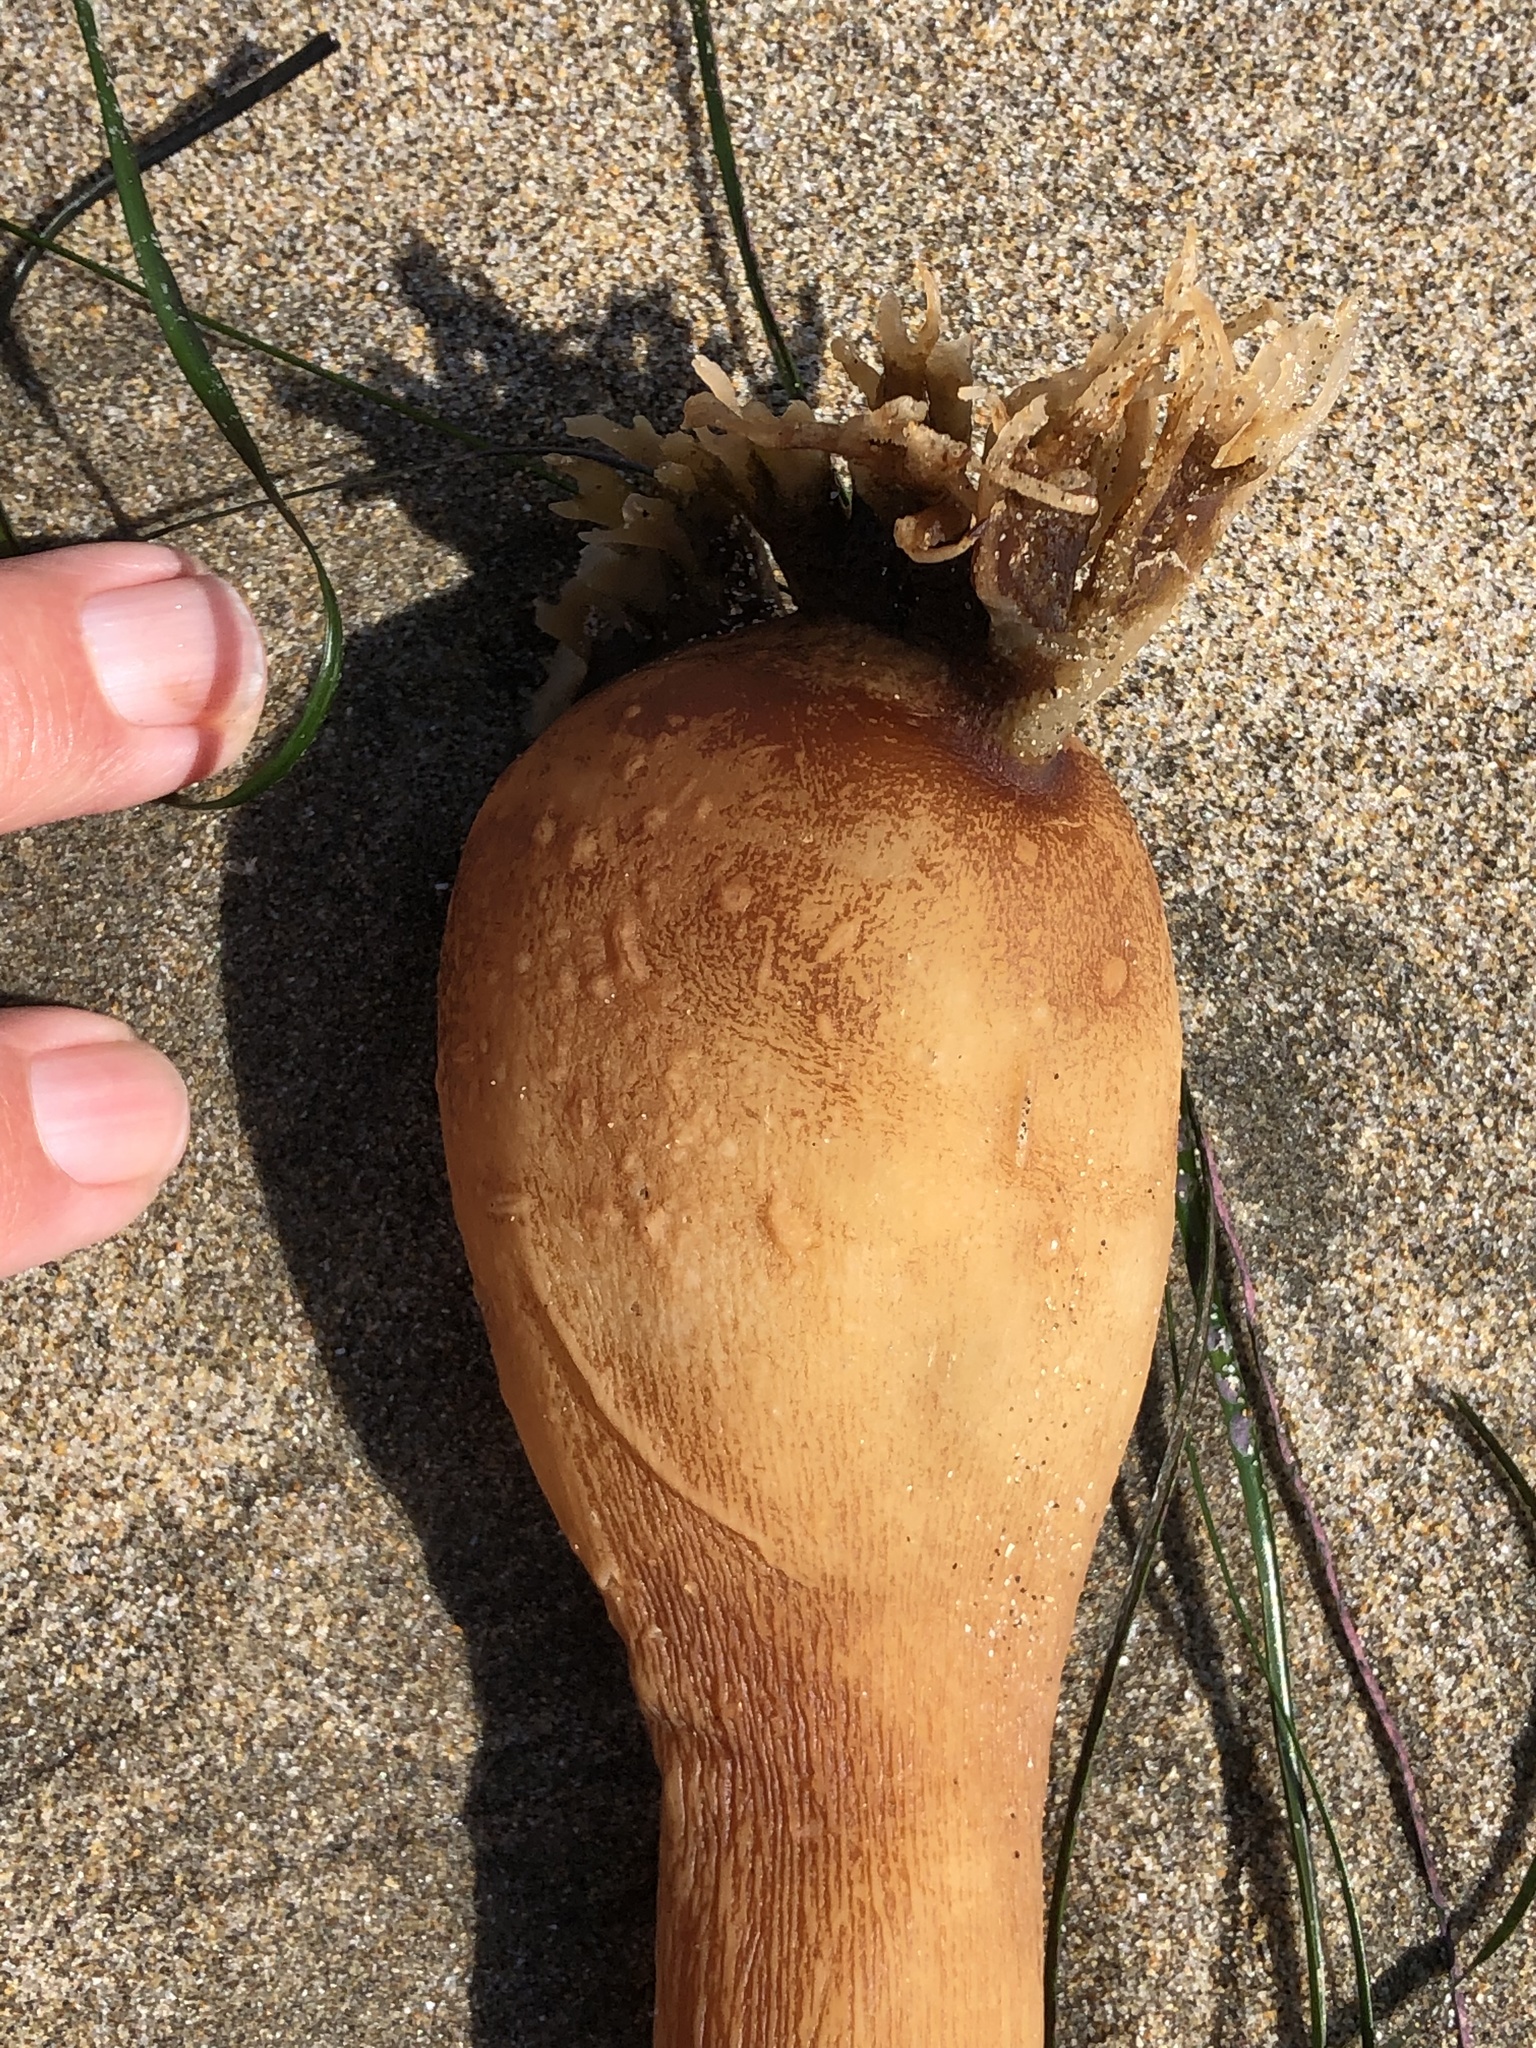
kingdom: Chromista
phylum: Ochrophyta
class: Phaeophyceae
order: Laminariales
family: Laminariaceae
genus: Nereocystis
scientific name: Nereocystis luetkeana
